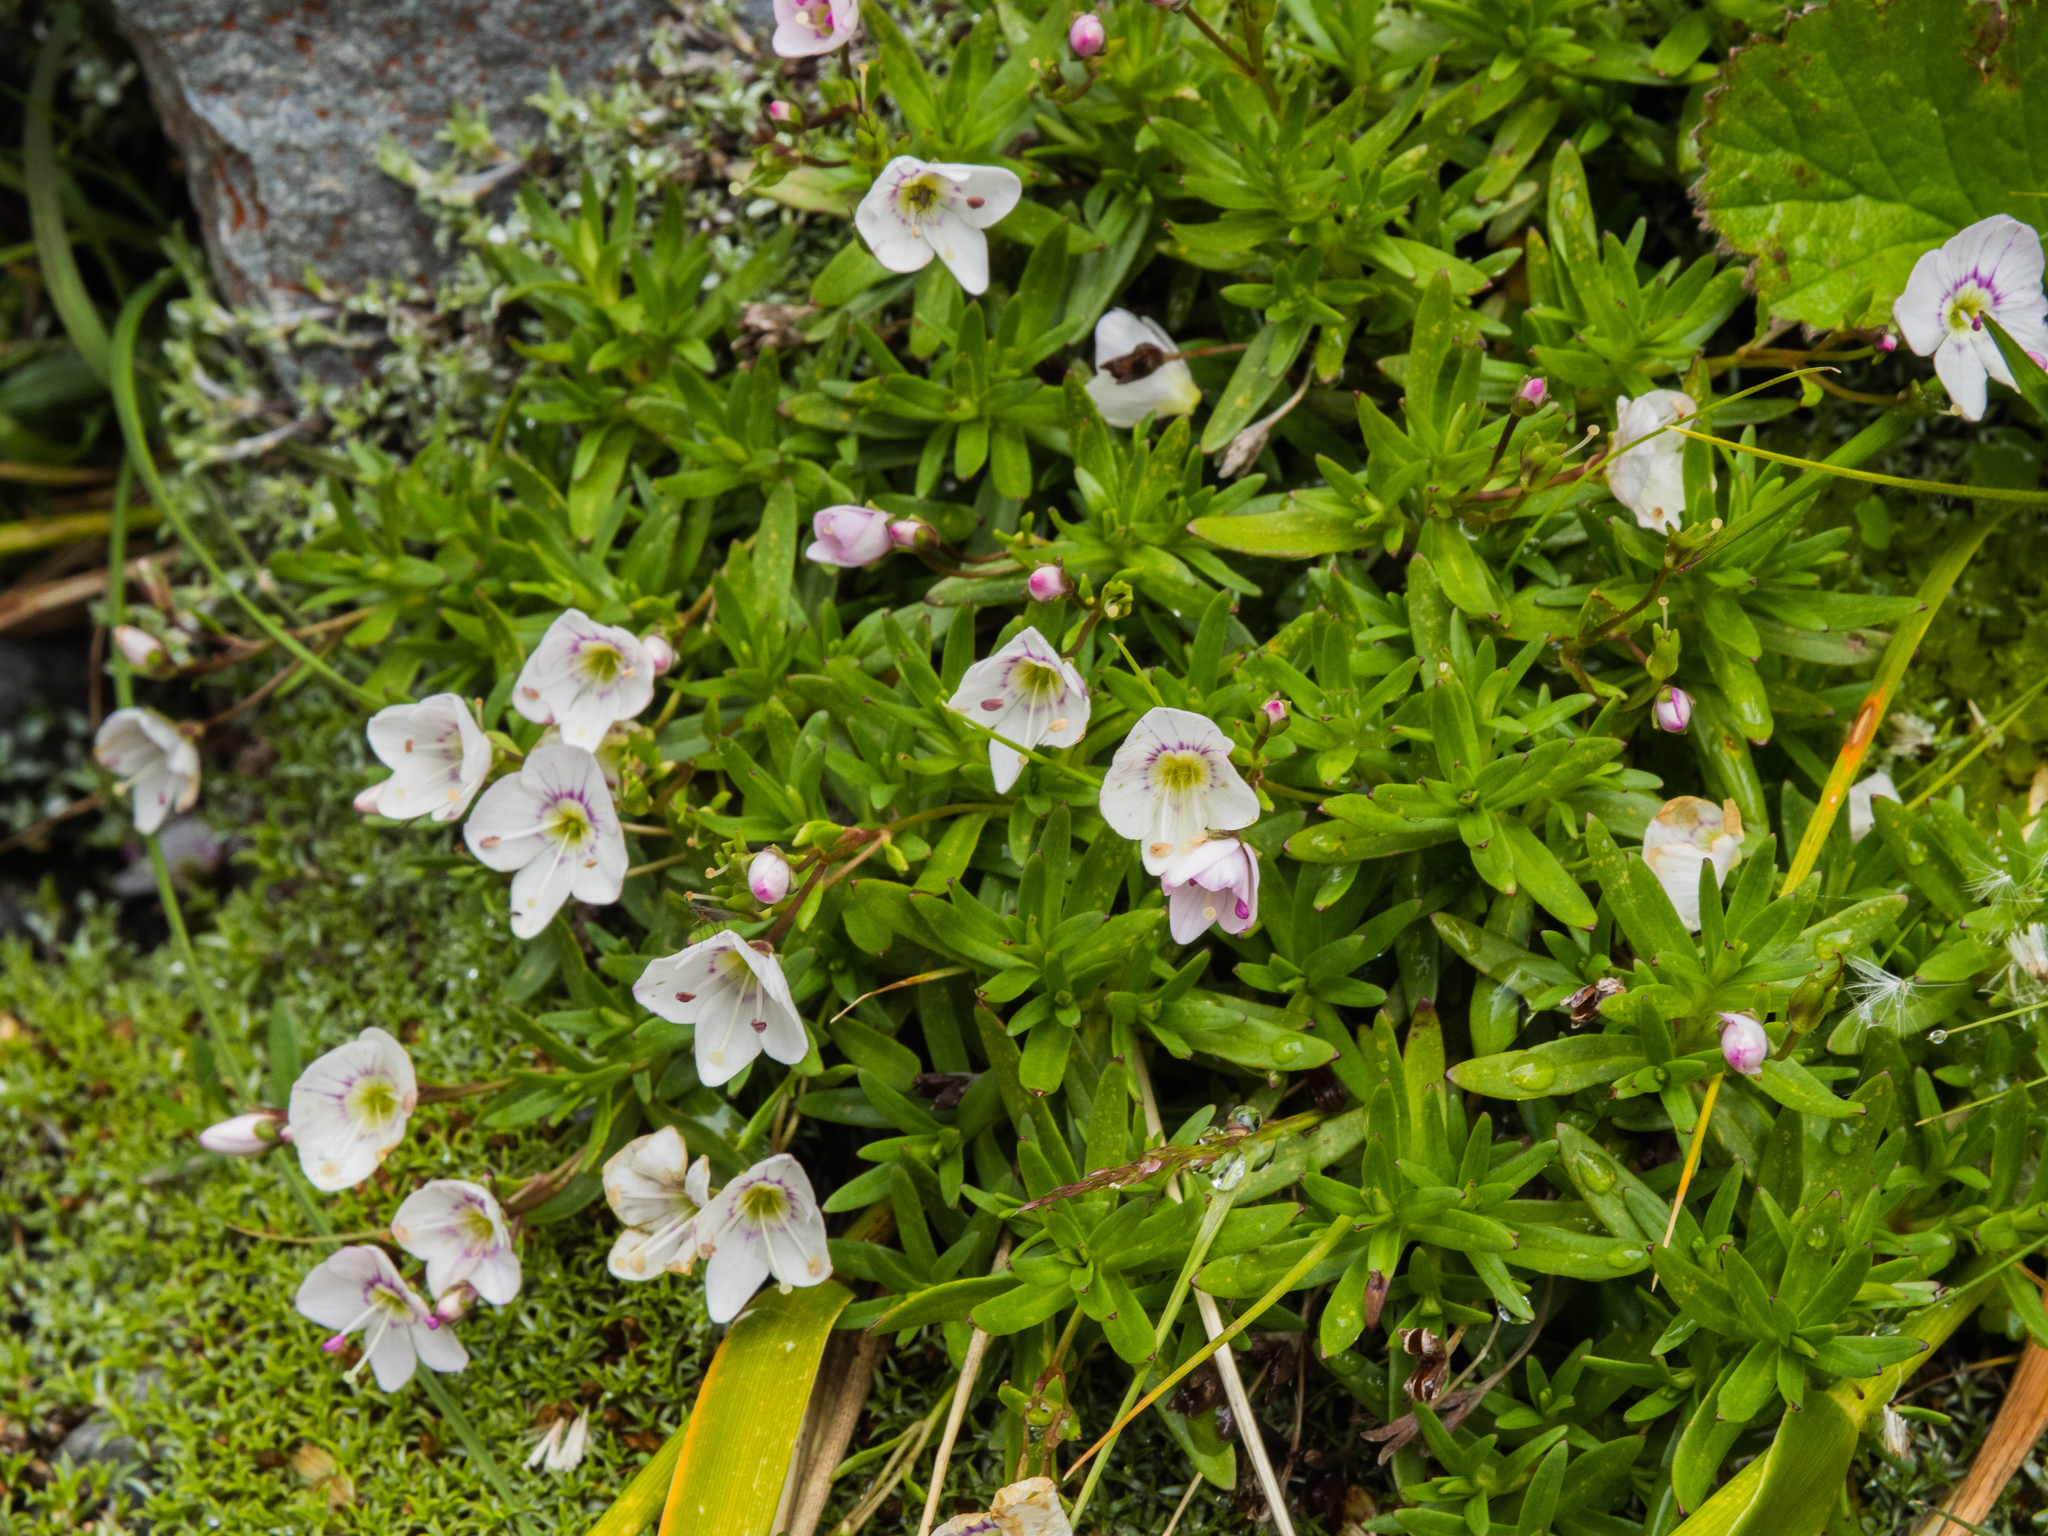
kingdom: Plantae
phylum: Tracheophyta
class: Magnoliopsida
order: Lamiales
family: Plantaginaceae
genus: Veronica
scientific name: Veronica linifolia
